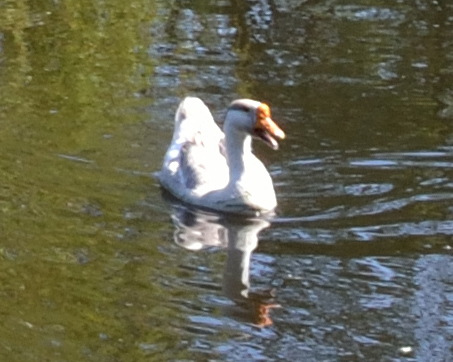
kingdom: Animalia
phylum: Chordata
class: Aves
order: Anseriformes
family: Anatidae
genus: Anser
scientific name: Anser
